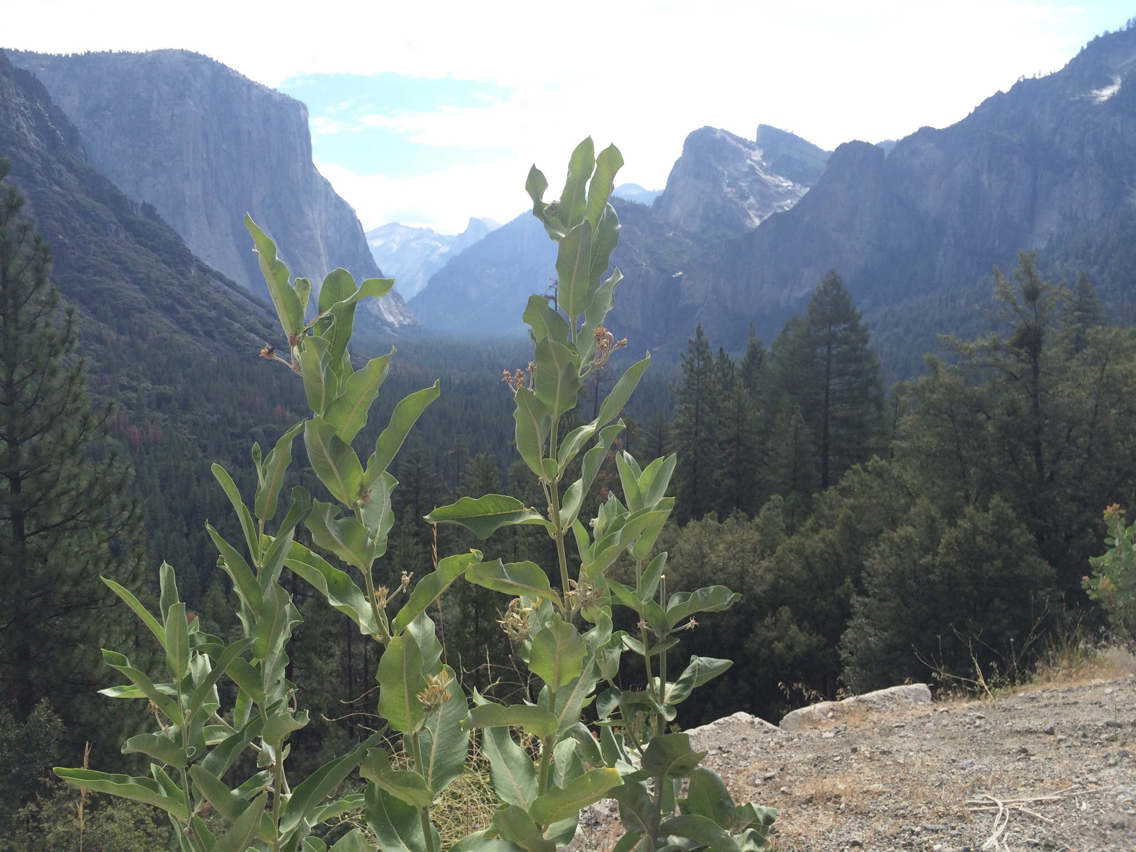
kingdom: Plantae
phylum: Tracheophyta
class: Magnoliopsida
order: Gentianales
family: Apocynaceae
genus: Asclepias
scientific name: Asclepias speciosa
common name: Showy milkweed
